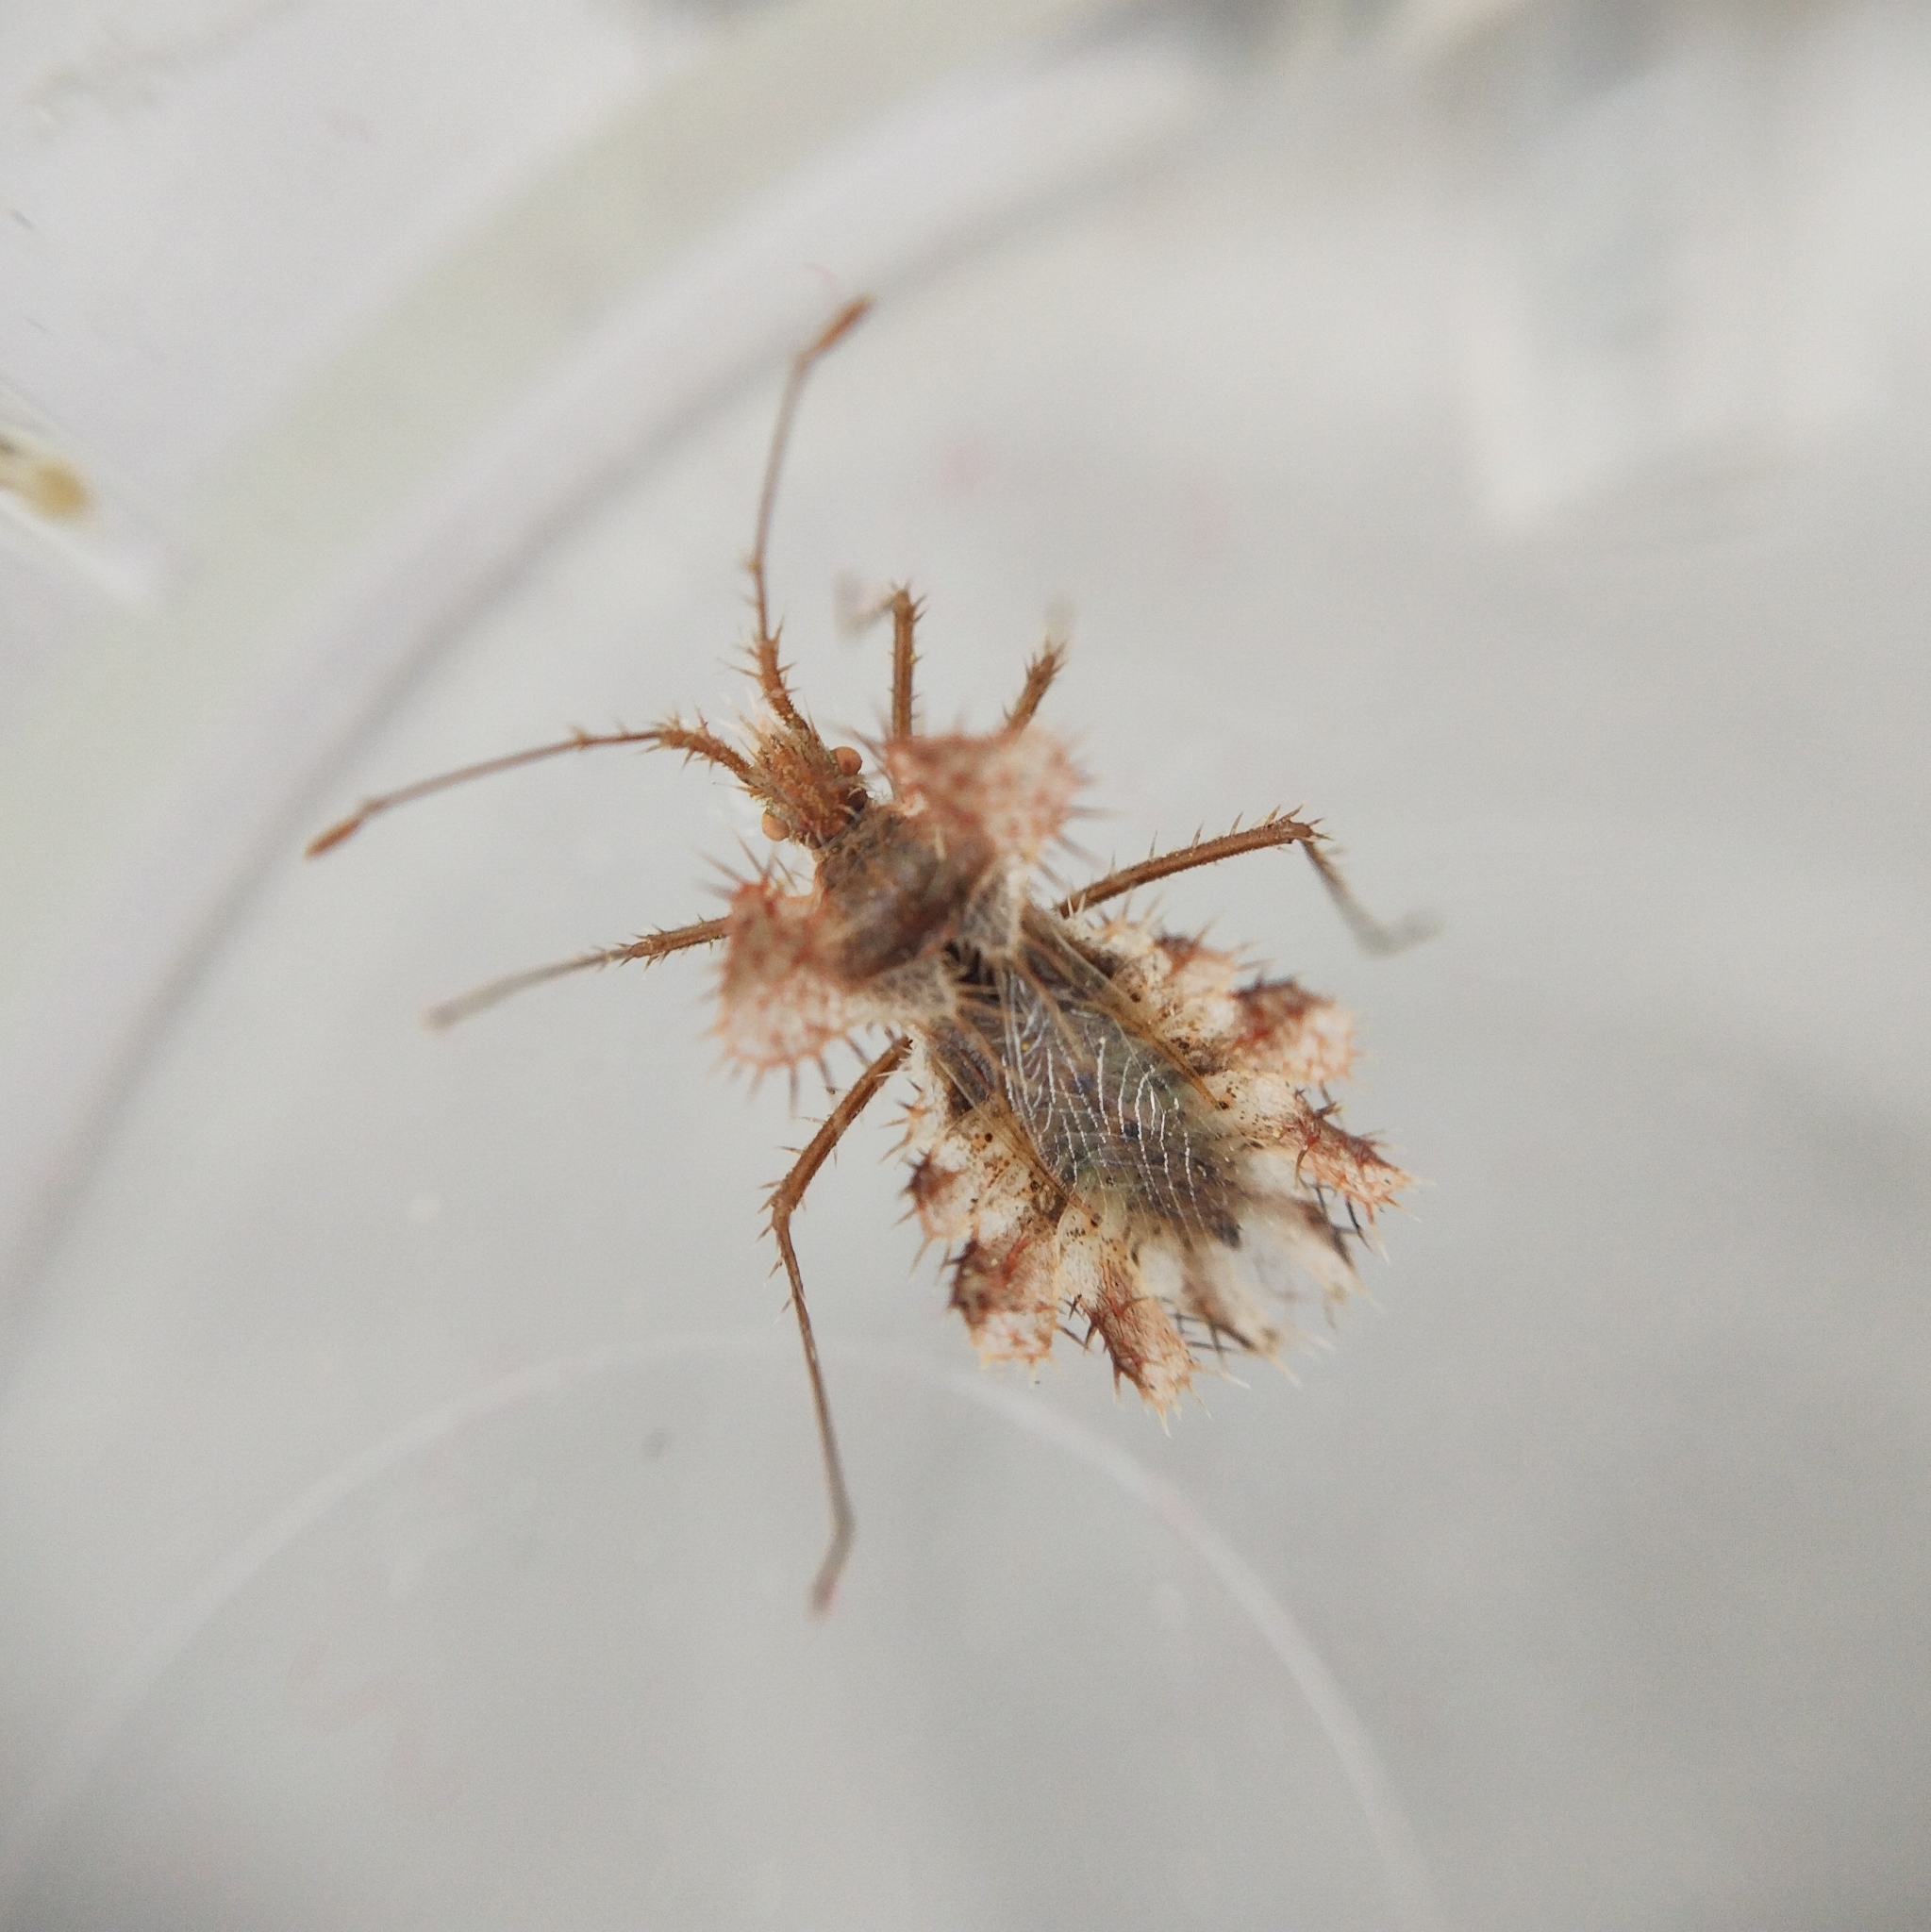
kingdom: Animalia
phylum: Arthropoda
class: Insecta
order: Hemiptera
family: Coreidae
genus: Phyllomorpha
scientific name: Phyllomorpha laciniata
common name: Golden egg bug
